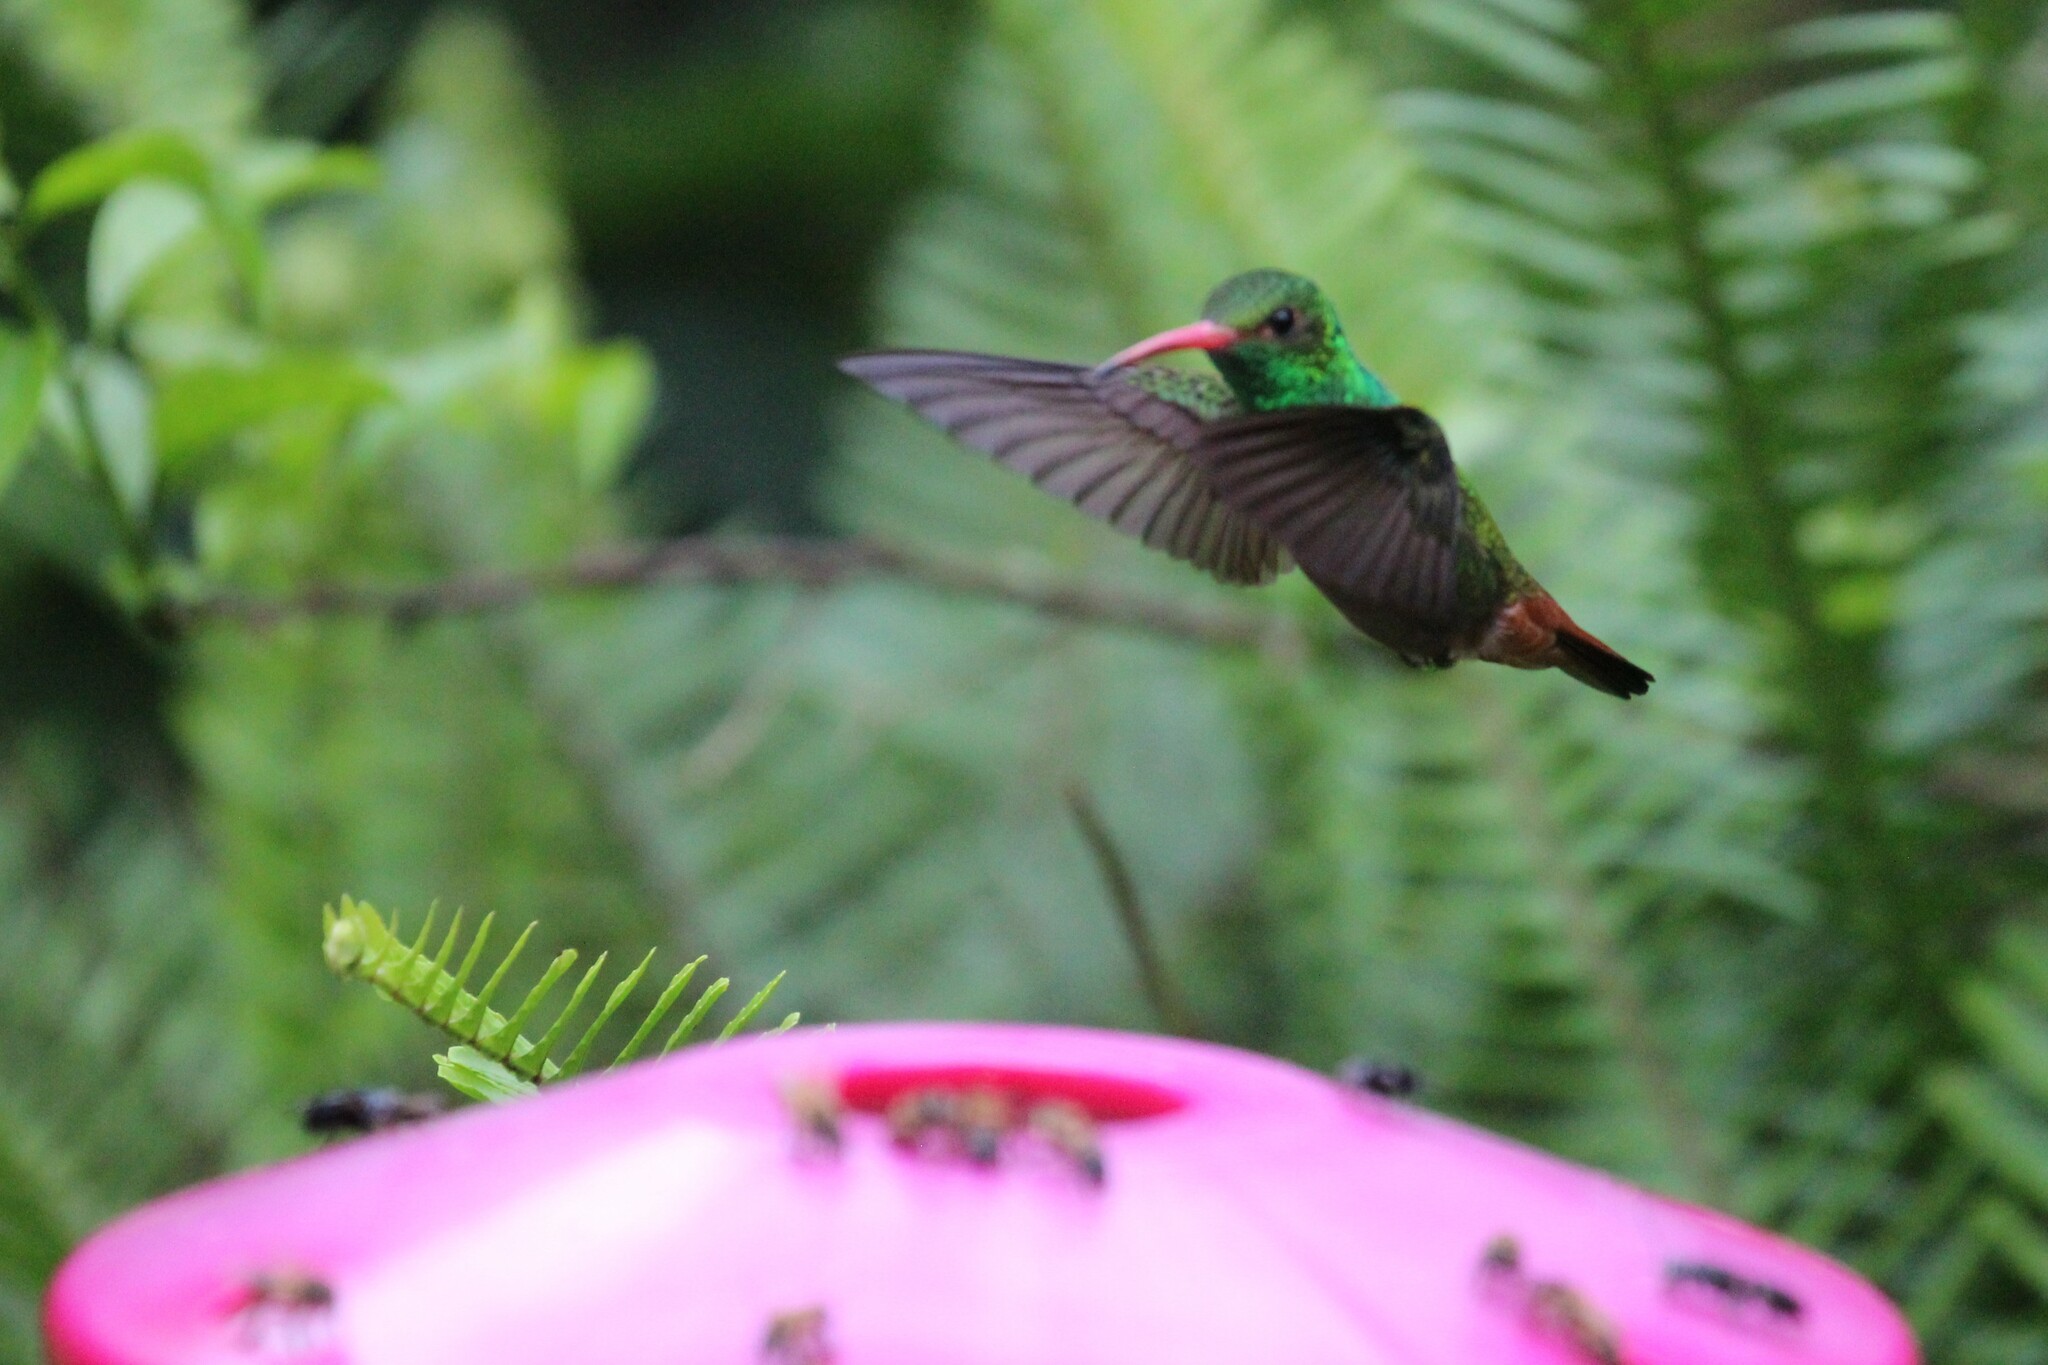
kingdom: Animalia
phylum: Chordata
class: Aves
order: Apodiformes
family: Trochilidae
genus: Amazilia
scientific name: Amazilia tzacatl
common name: Rufous-tailed hummingbird
